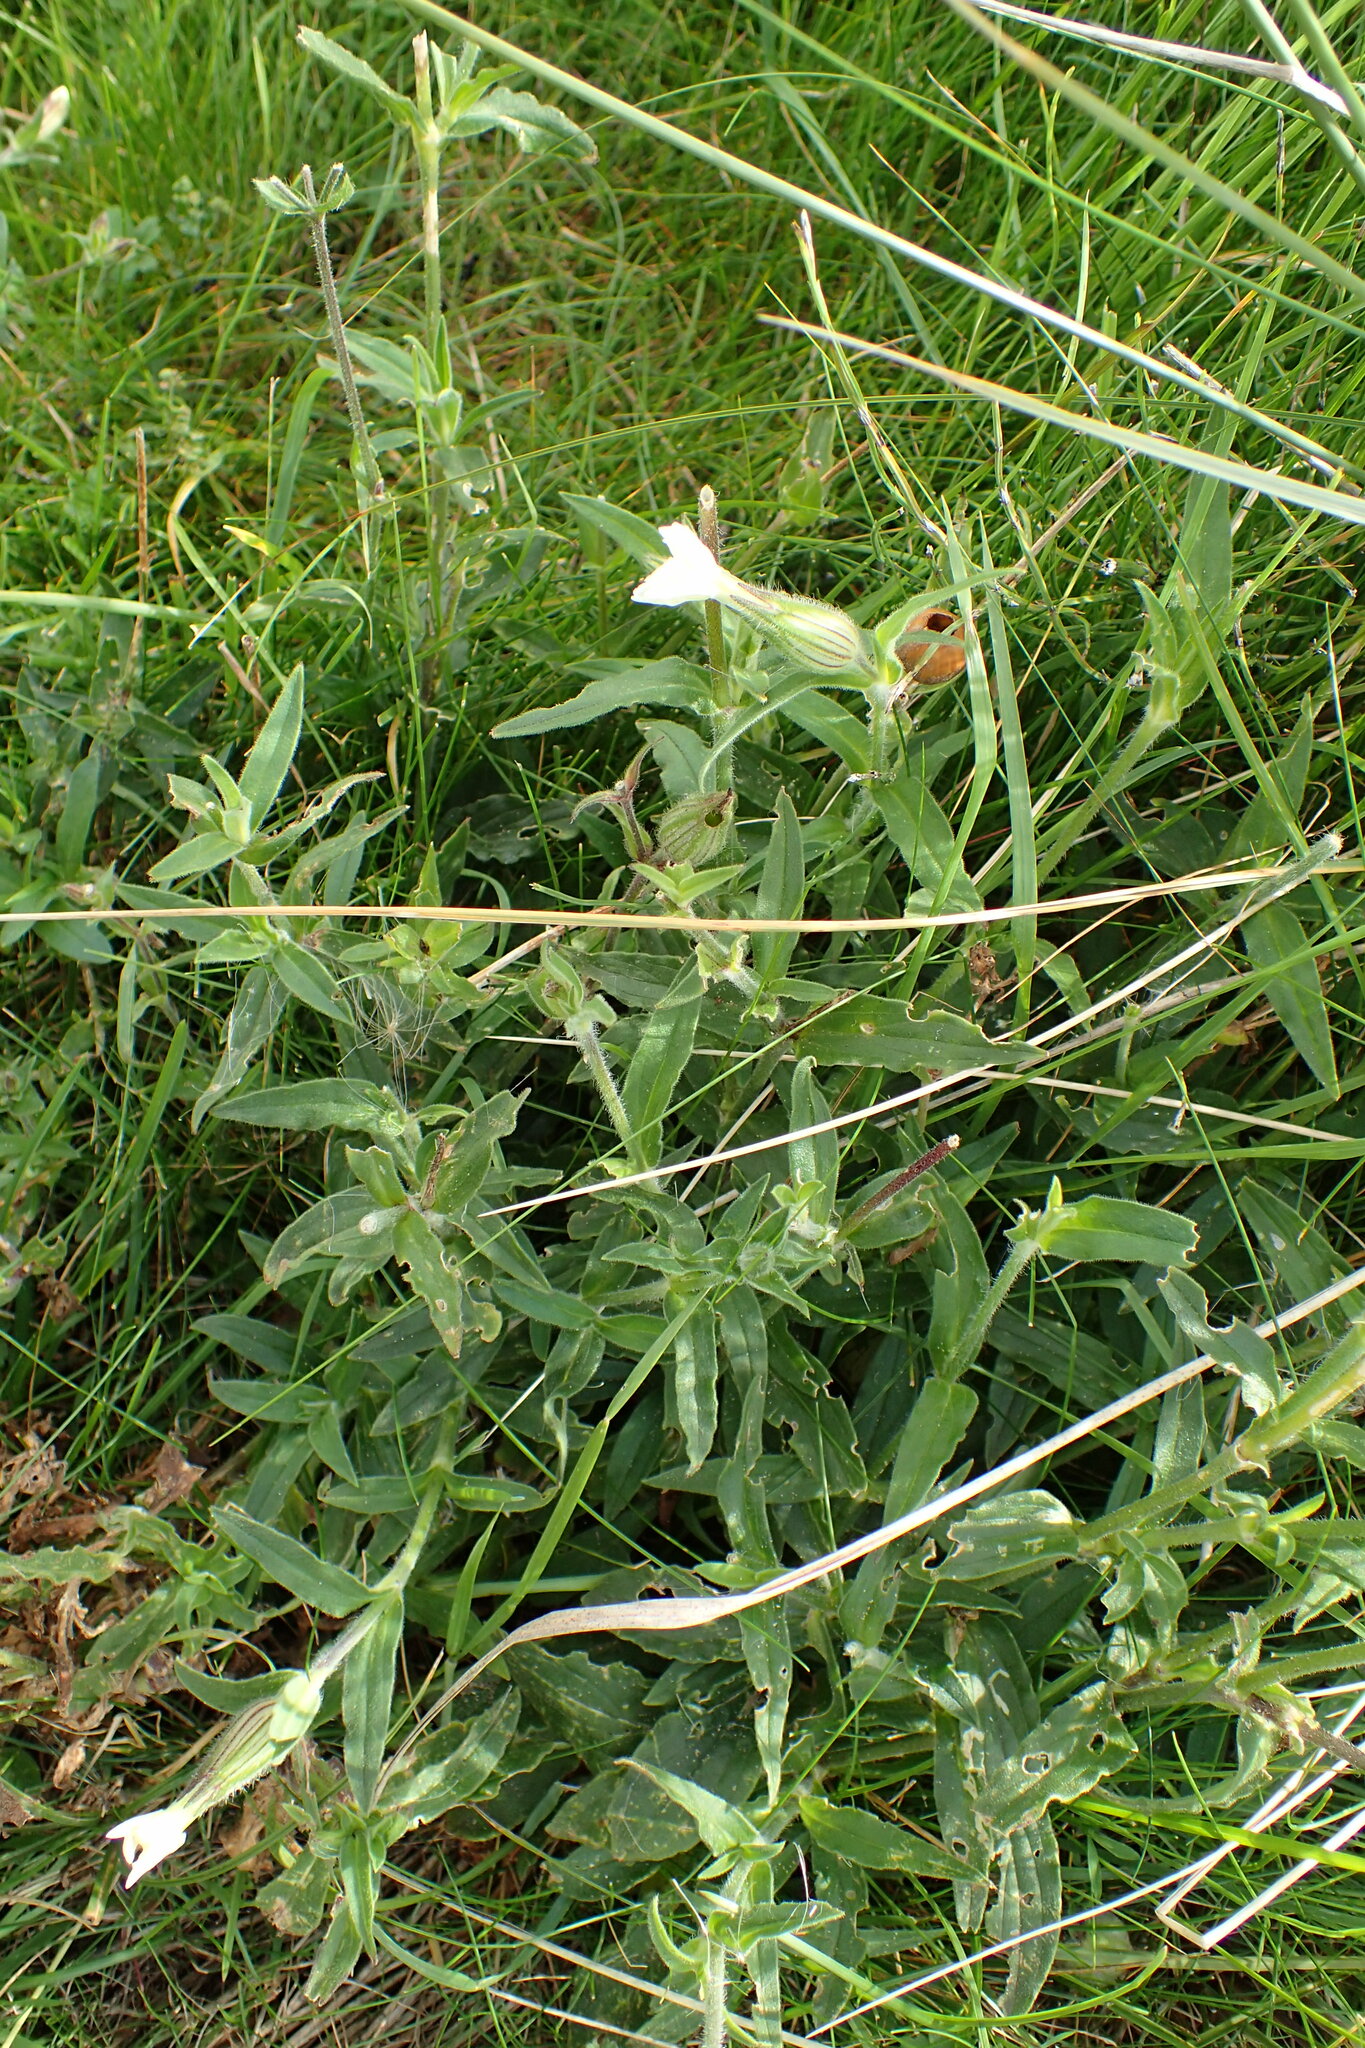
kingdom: Plantae
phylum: Tracheophyta
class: Magnoliopsida
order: Caryophyllales
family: Caryophyllaceae
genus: Silene
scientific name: Silene latifolia
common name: White campion
